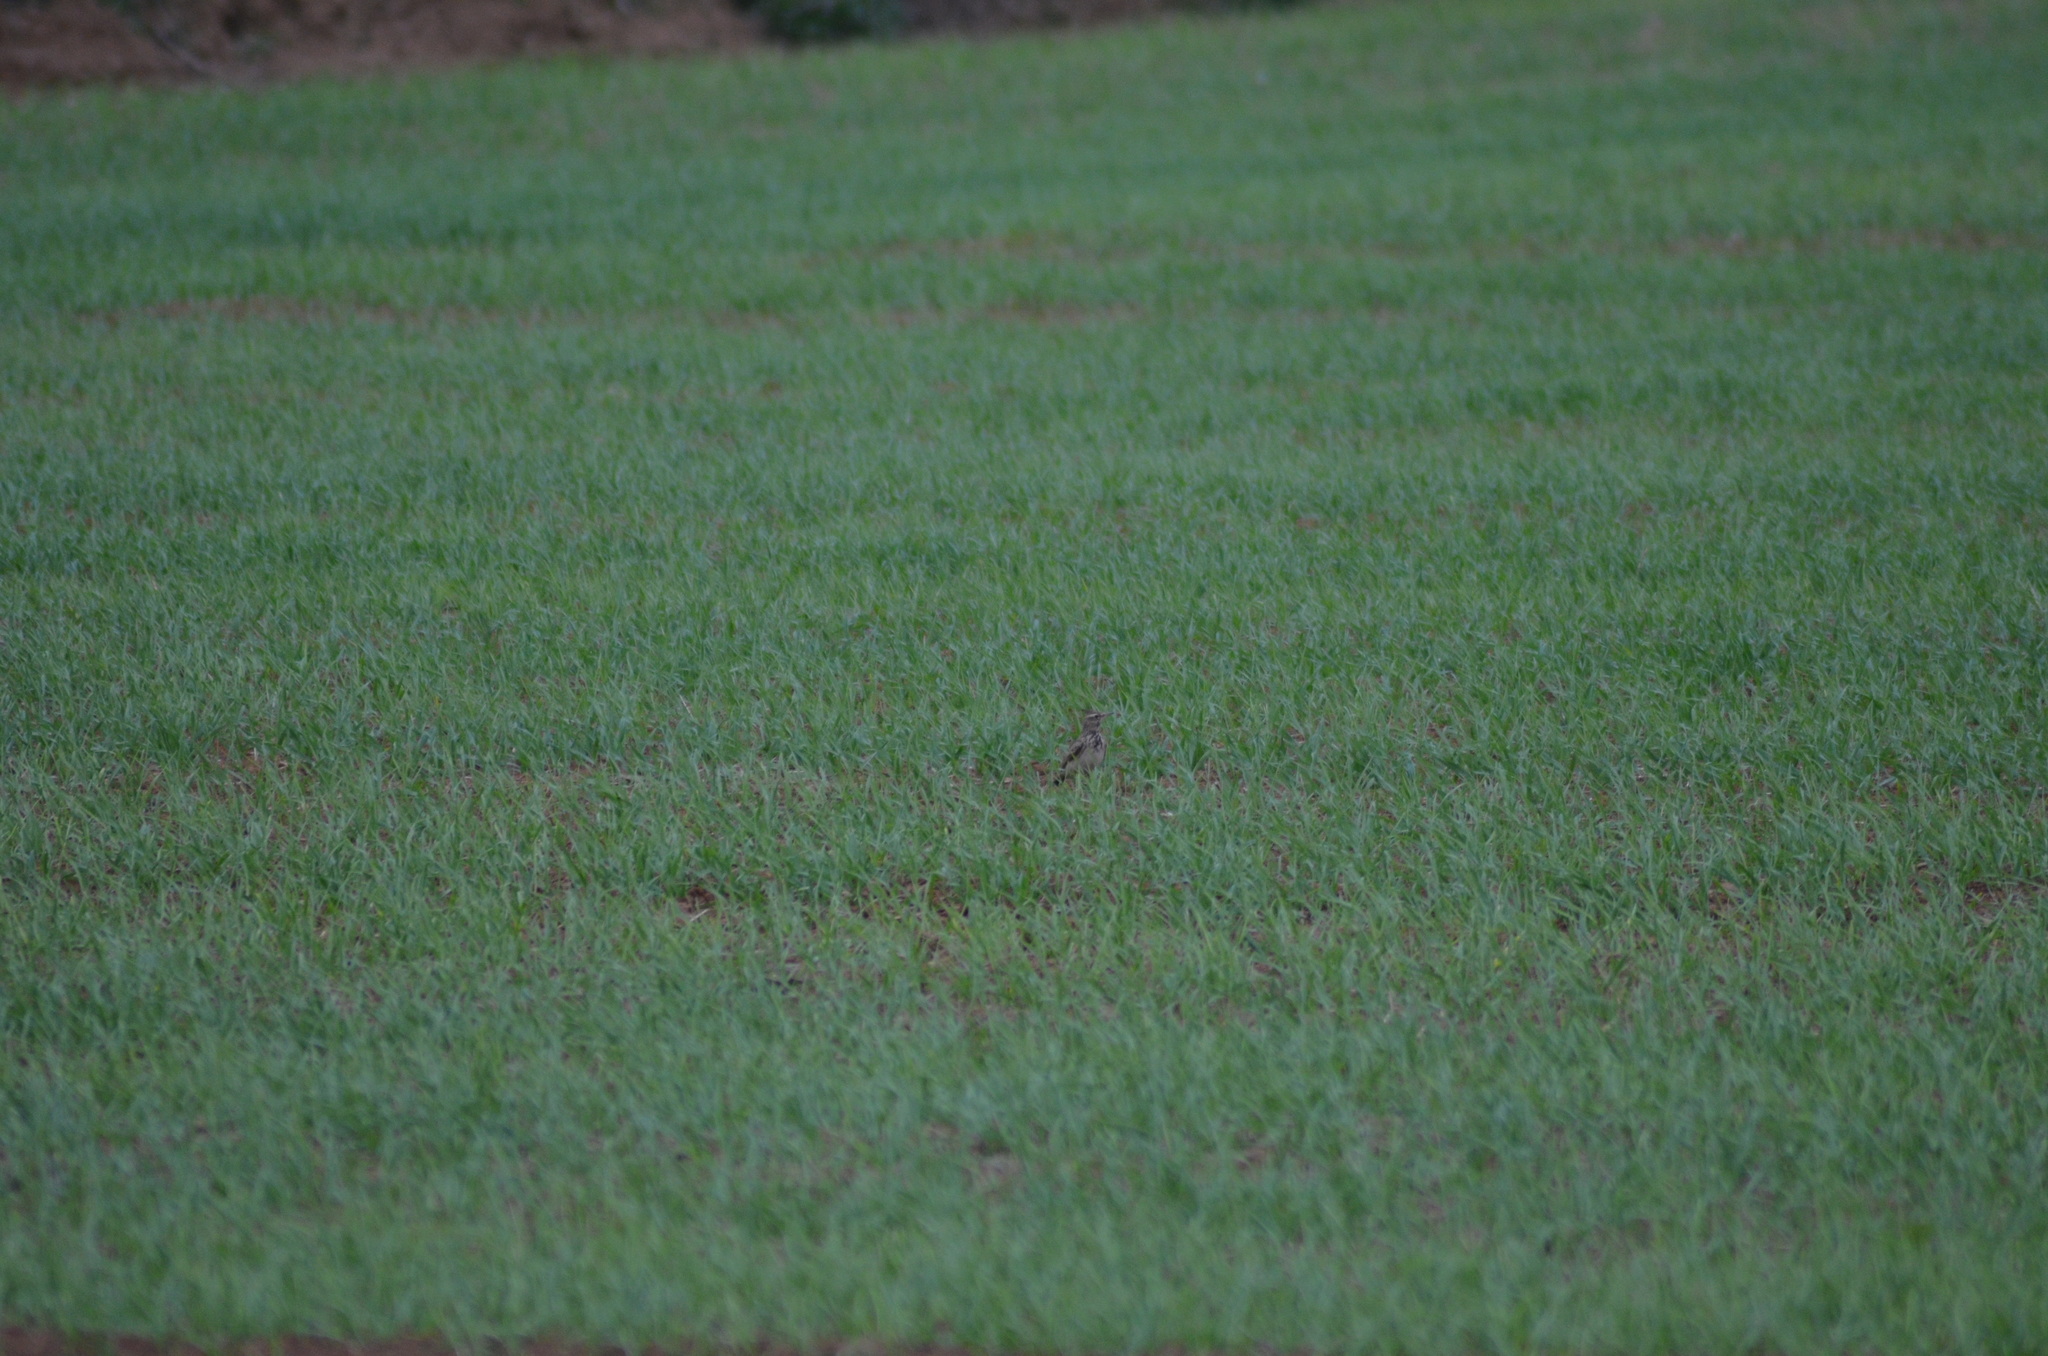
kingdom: Animalia
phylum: Chordata
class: Aves
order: Passeriformes
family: Alaudidae
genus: Galerida
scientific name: Galerida cristata
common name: Crested lark
